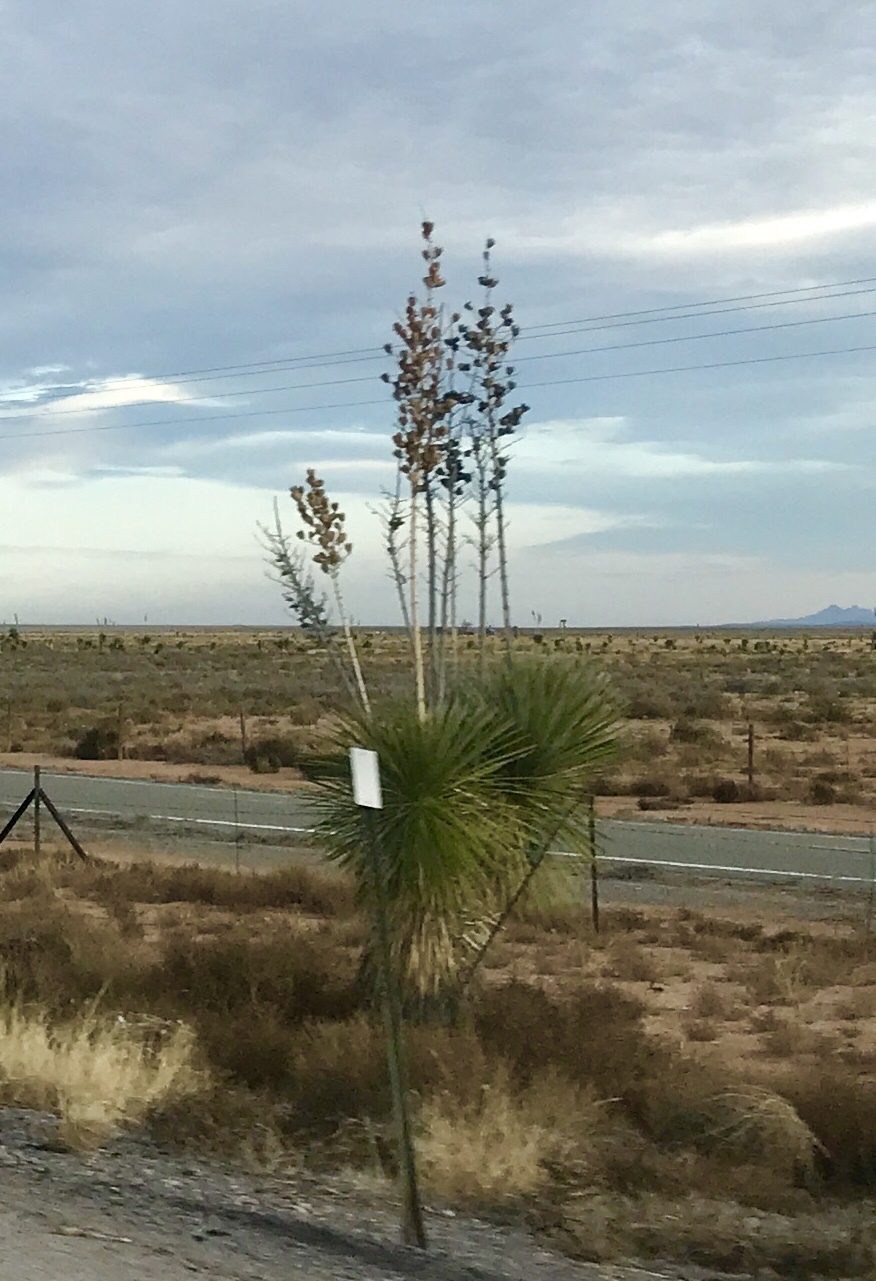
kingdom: Plantae
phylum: Tracheophyta
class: Liliopsida
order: Asparagales
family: Asparagaceae
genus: Yucca
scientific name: Yucca elata
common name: Palmella
